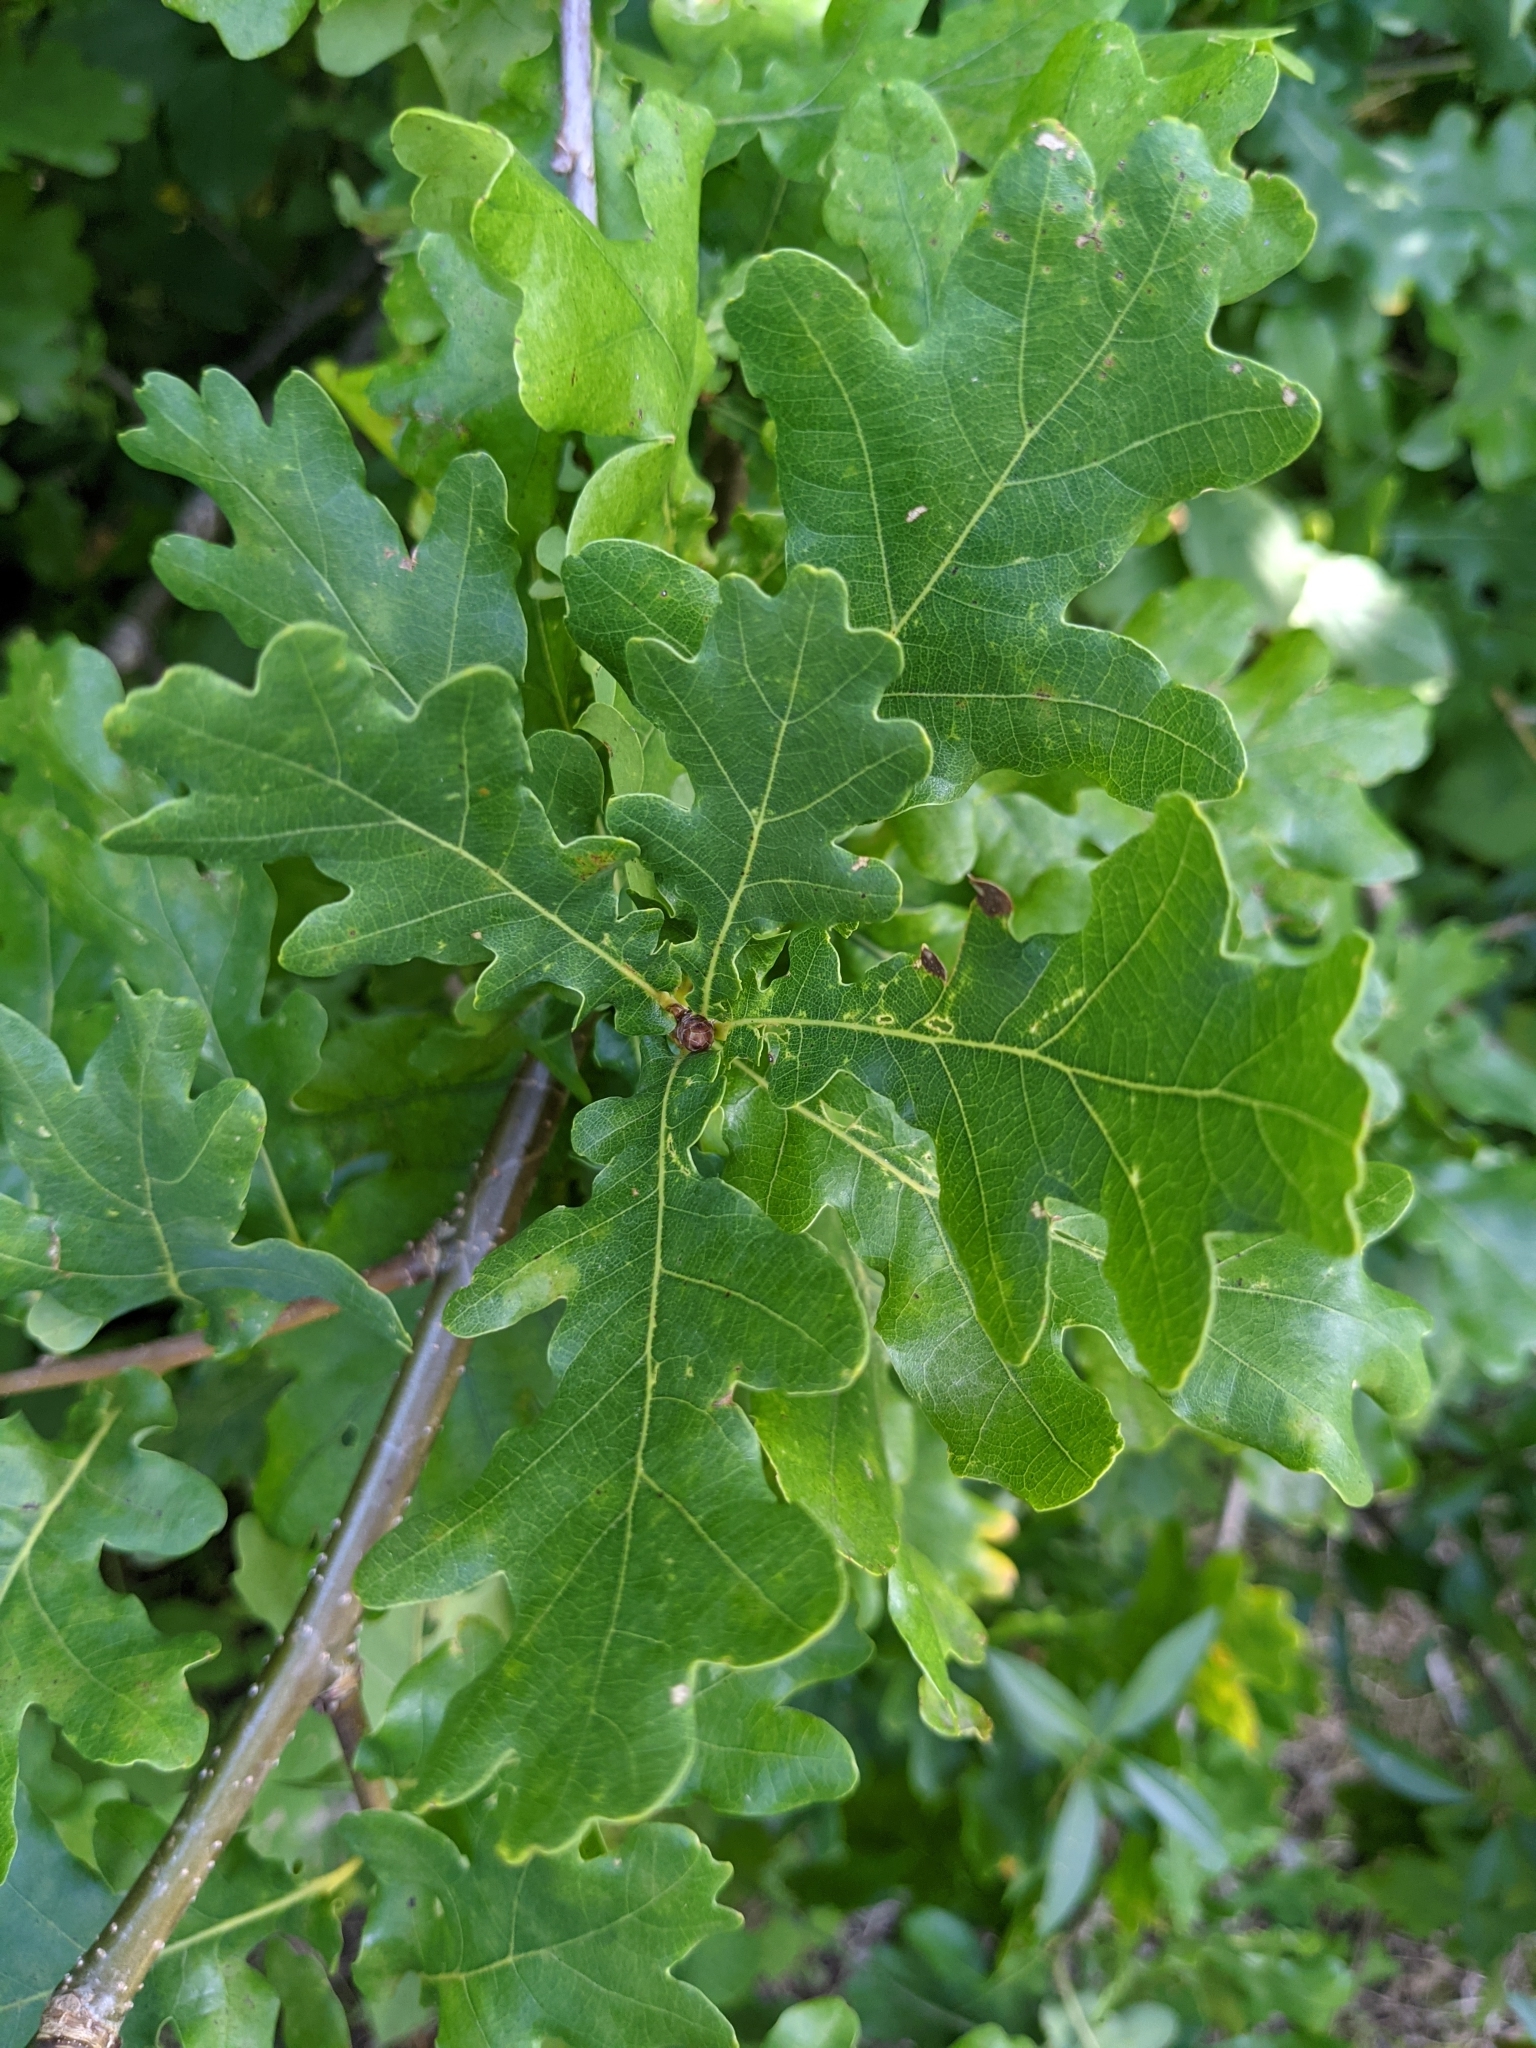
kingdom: Plantae
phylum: Tracheophyta
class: Magnoliopsida
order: Fagales
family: Fagaceae
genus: Quercus
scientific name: Quercus robur
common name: Pedunculate oak
